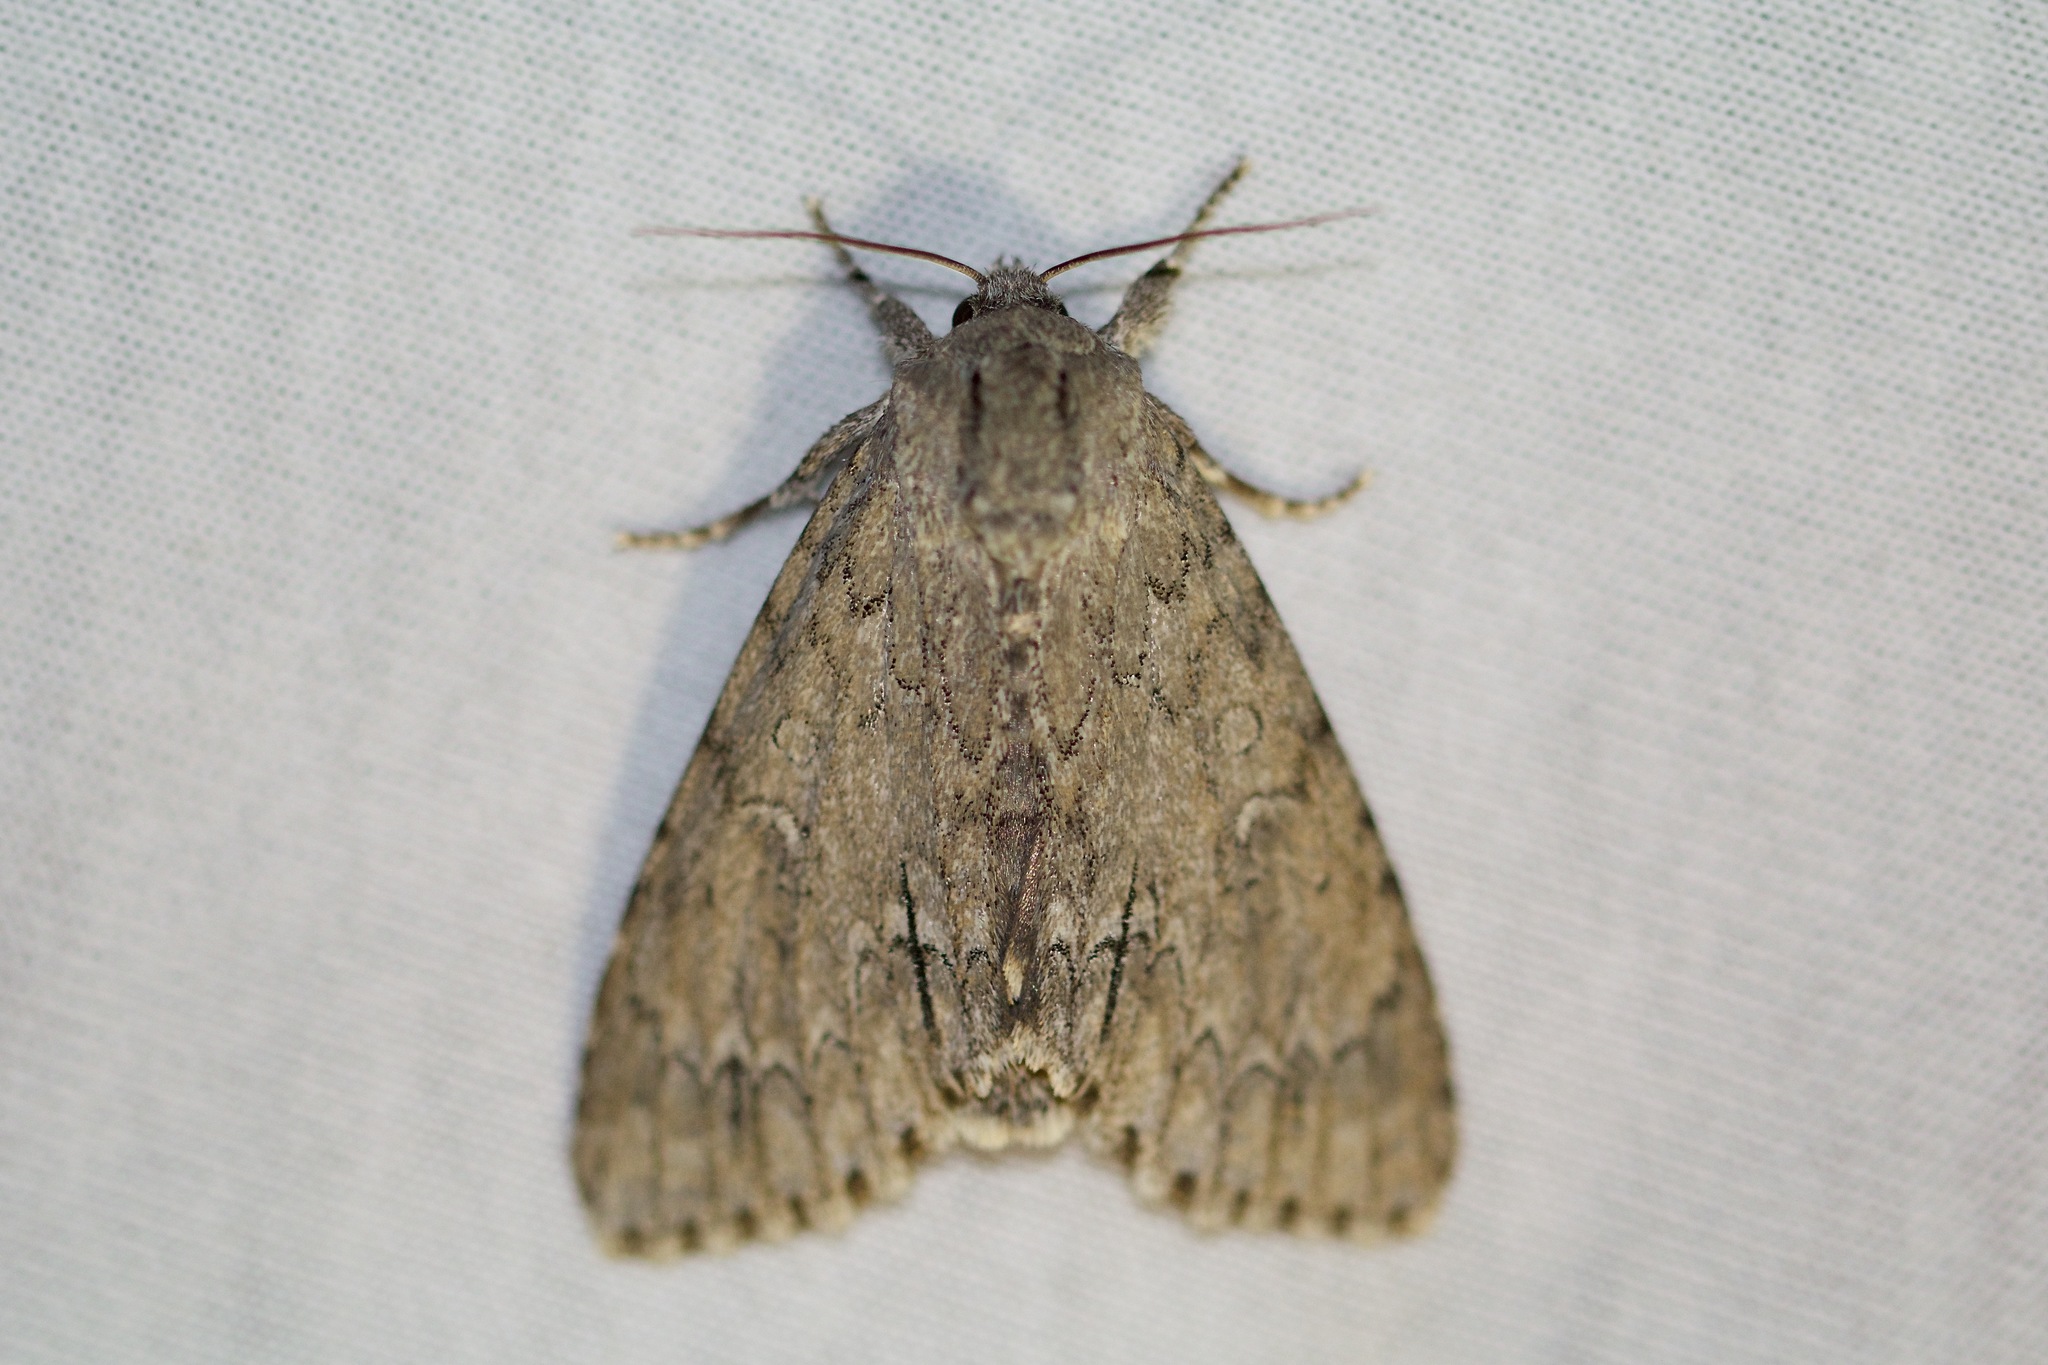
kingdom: Animalia
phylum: Arthropoda
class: Insecta
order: Lepidoptera
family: Noctuidae
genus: Acronicta
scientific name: Acronicta americana
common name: American dagger
